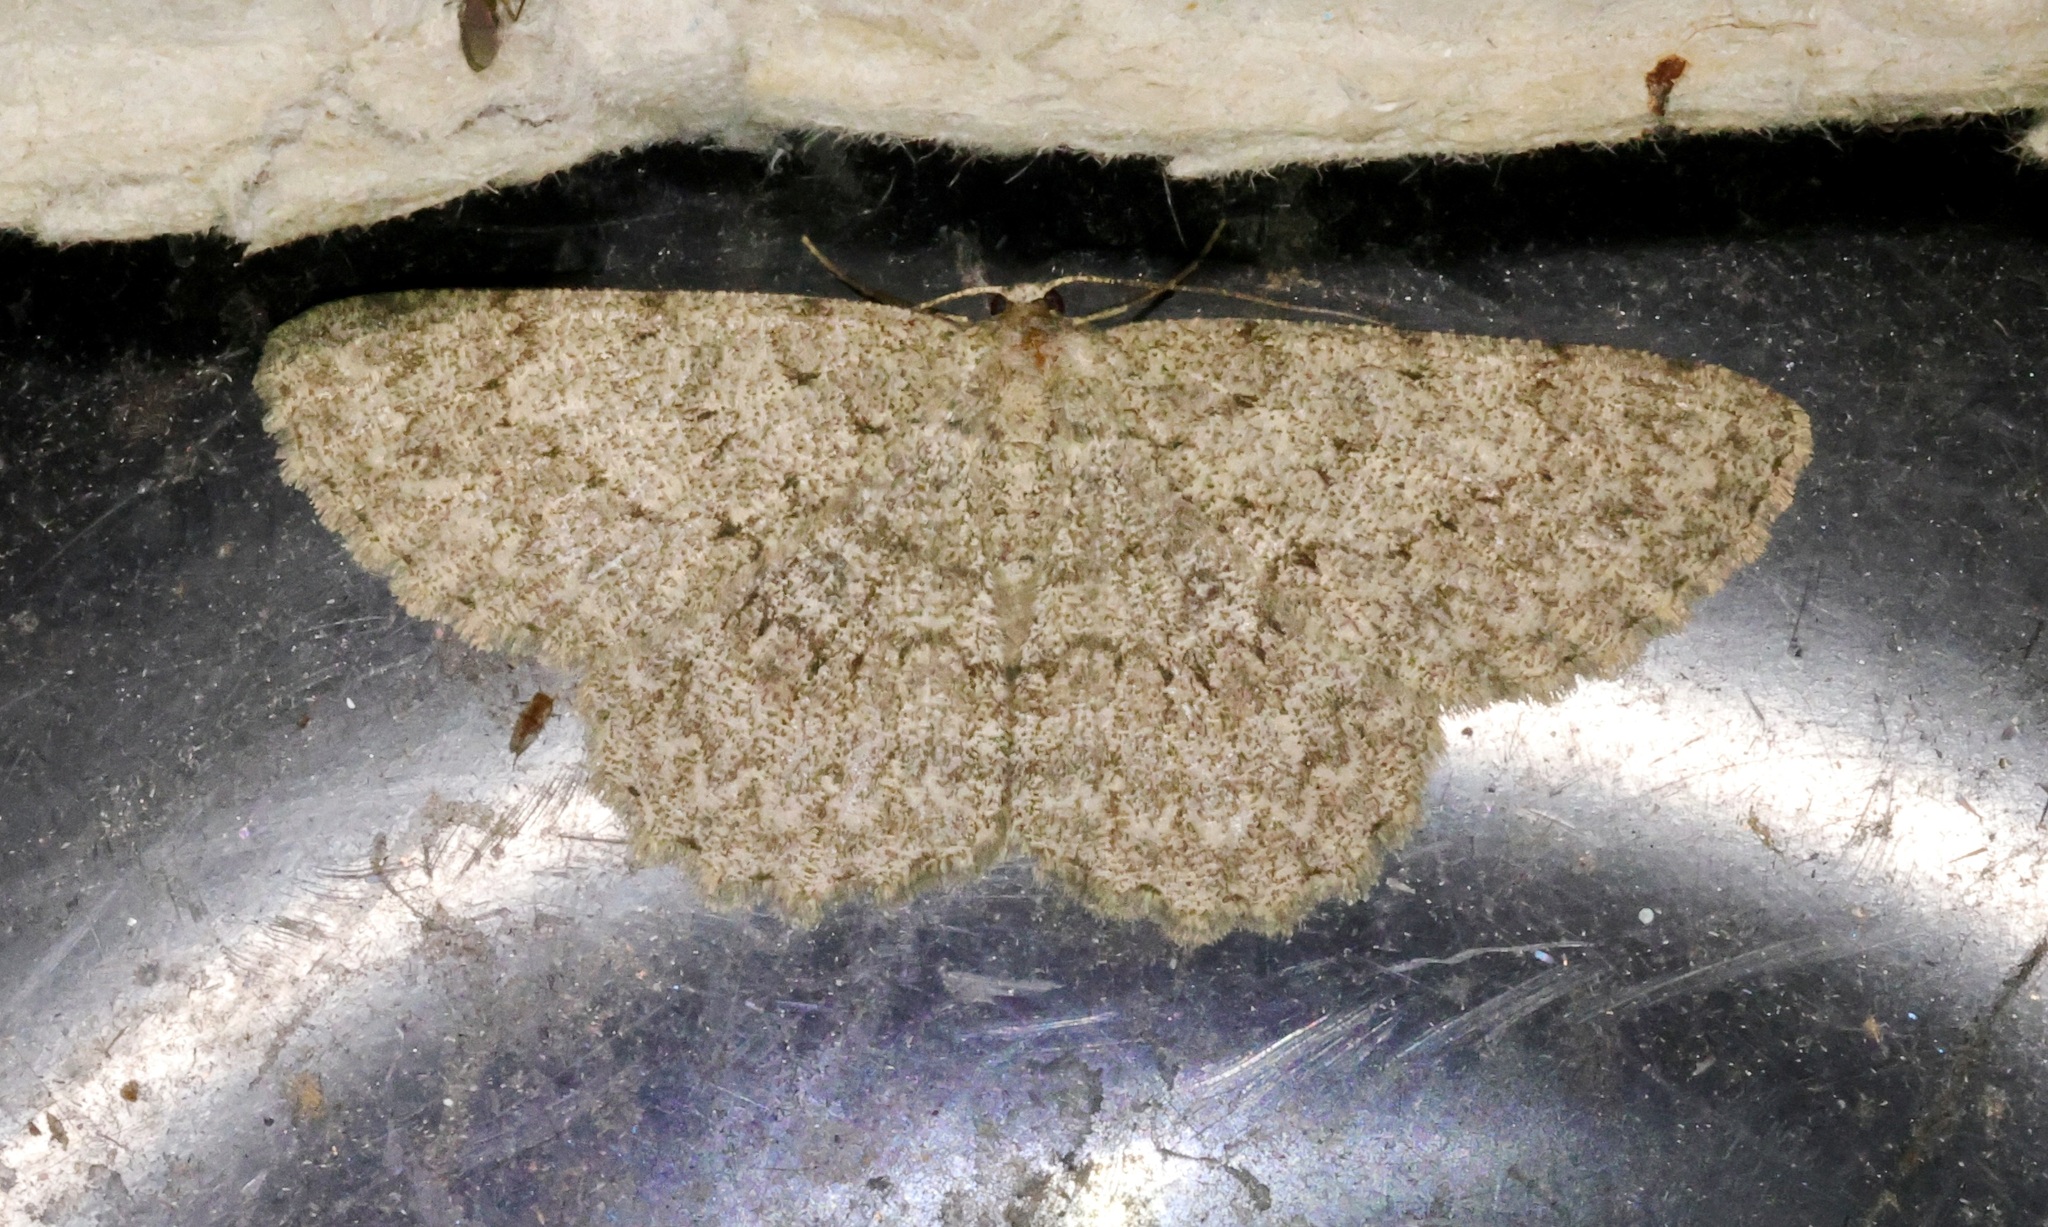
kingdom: Animalia
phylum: Arthropoda
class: Insecta
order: Lepidoptera
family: Geometridae
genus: Hypomecis
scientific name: Hypomecis infixaria
